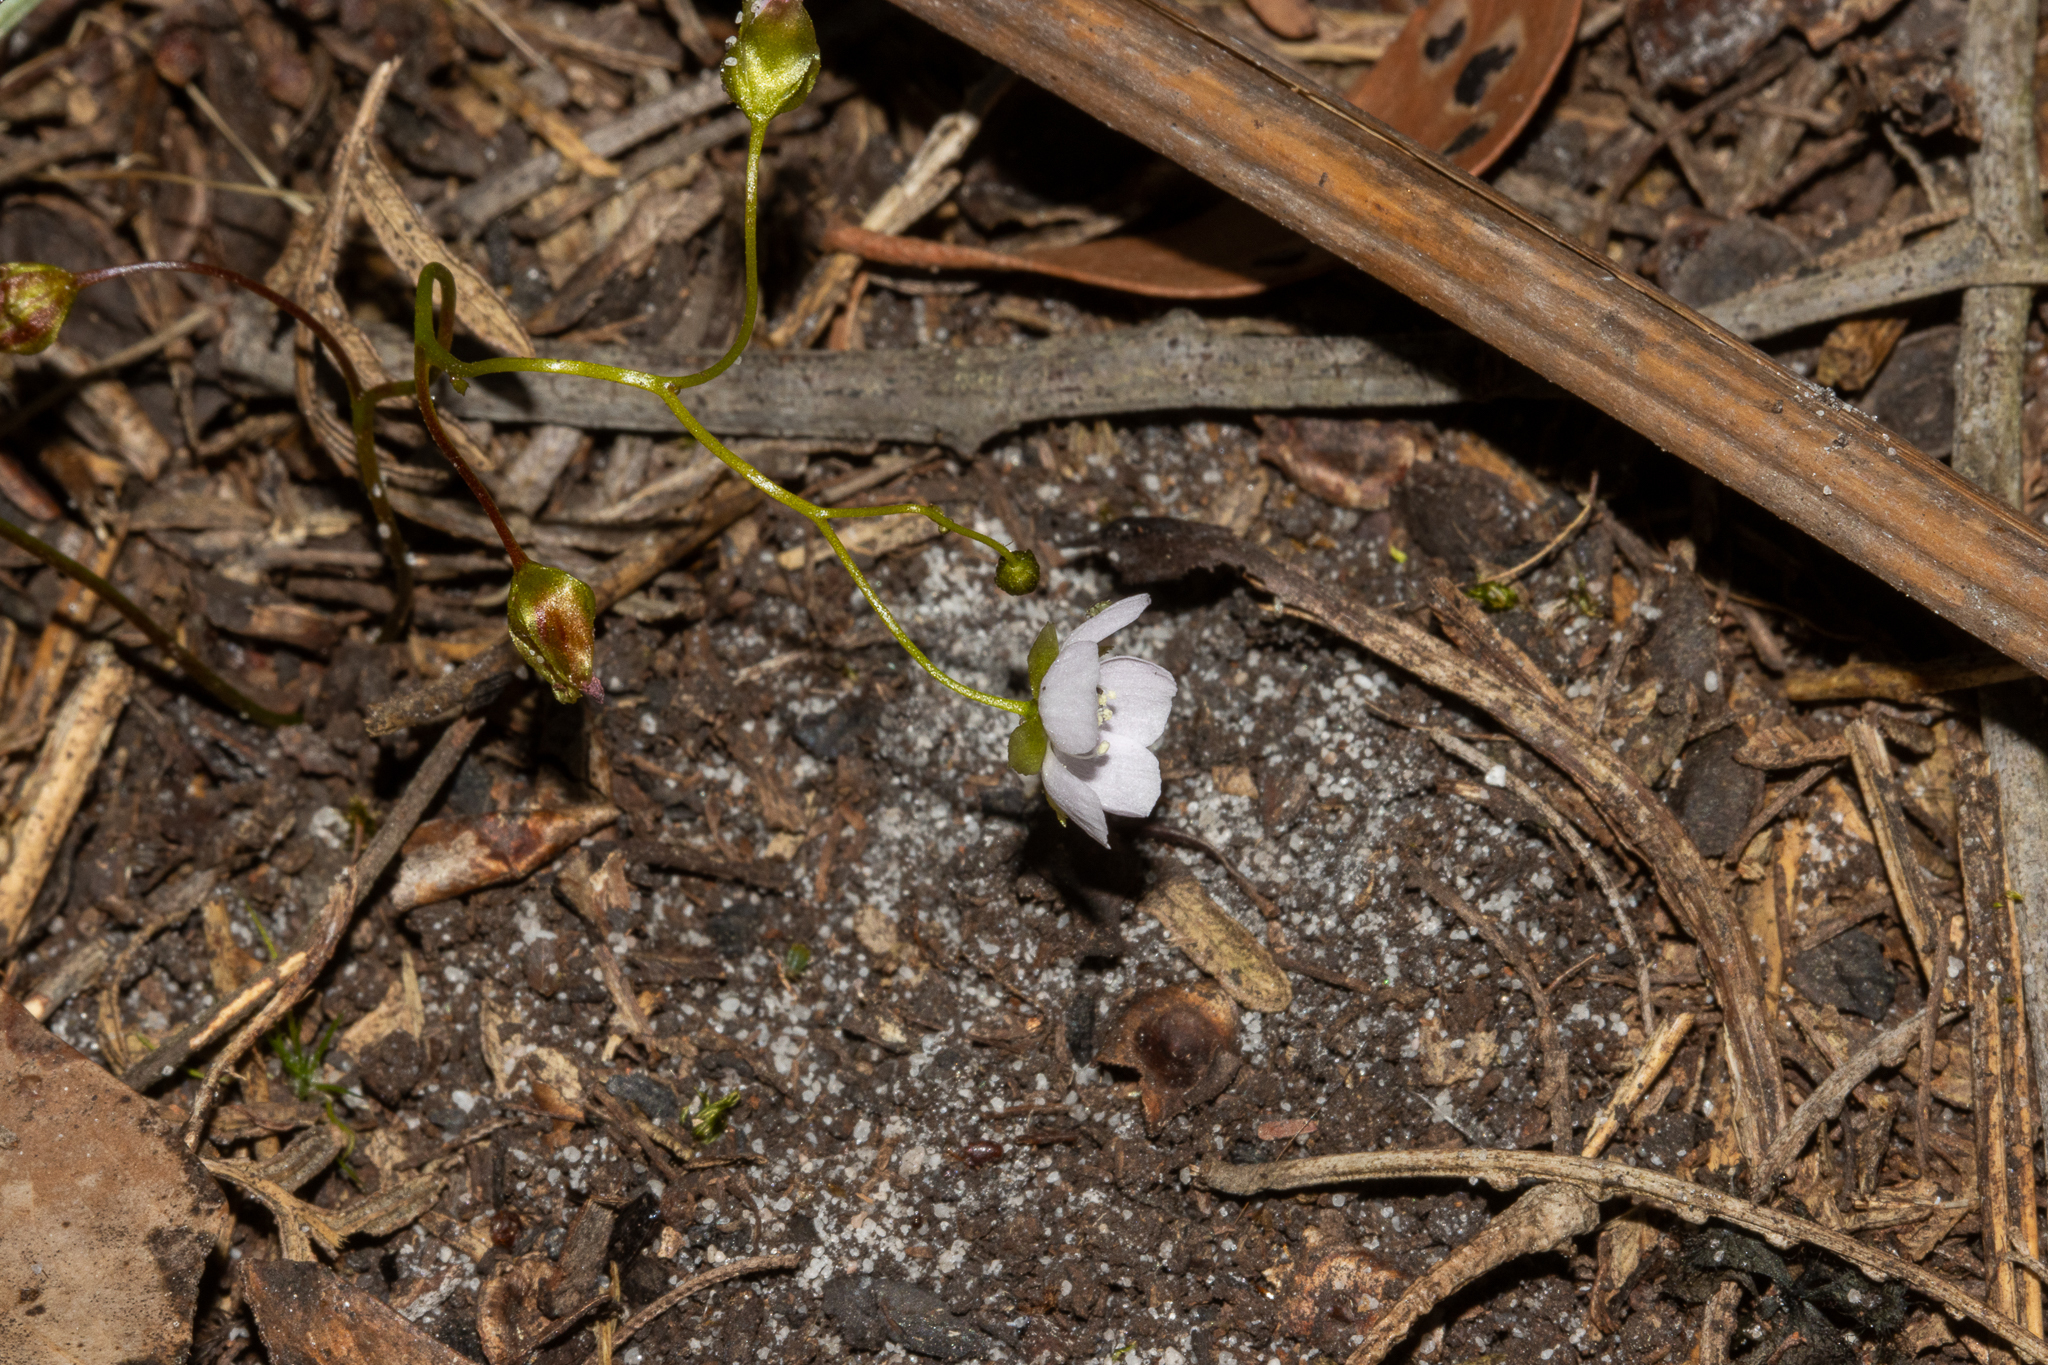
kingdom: Plantae
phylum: Tracheophyta
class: Magnoliopsida
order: Caryophyllales
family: Droseraceae
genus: Drosera
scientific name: Drosera peltata
